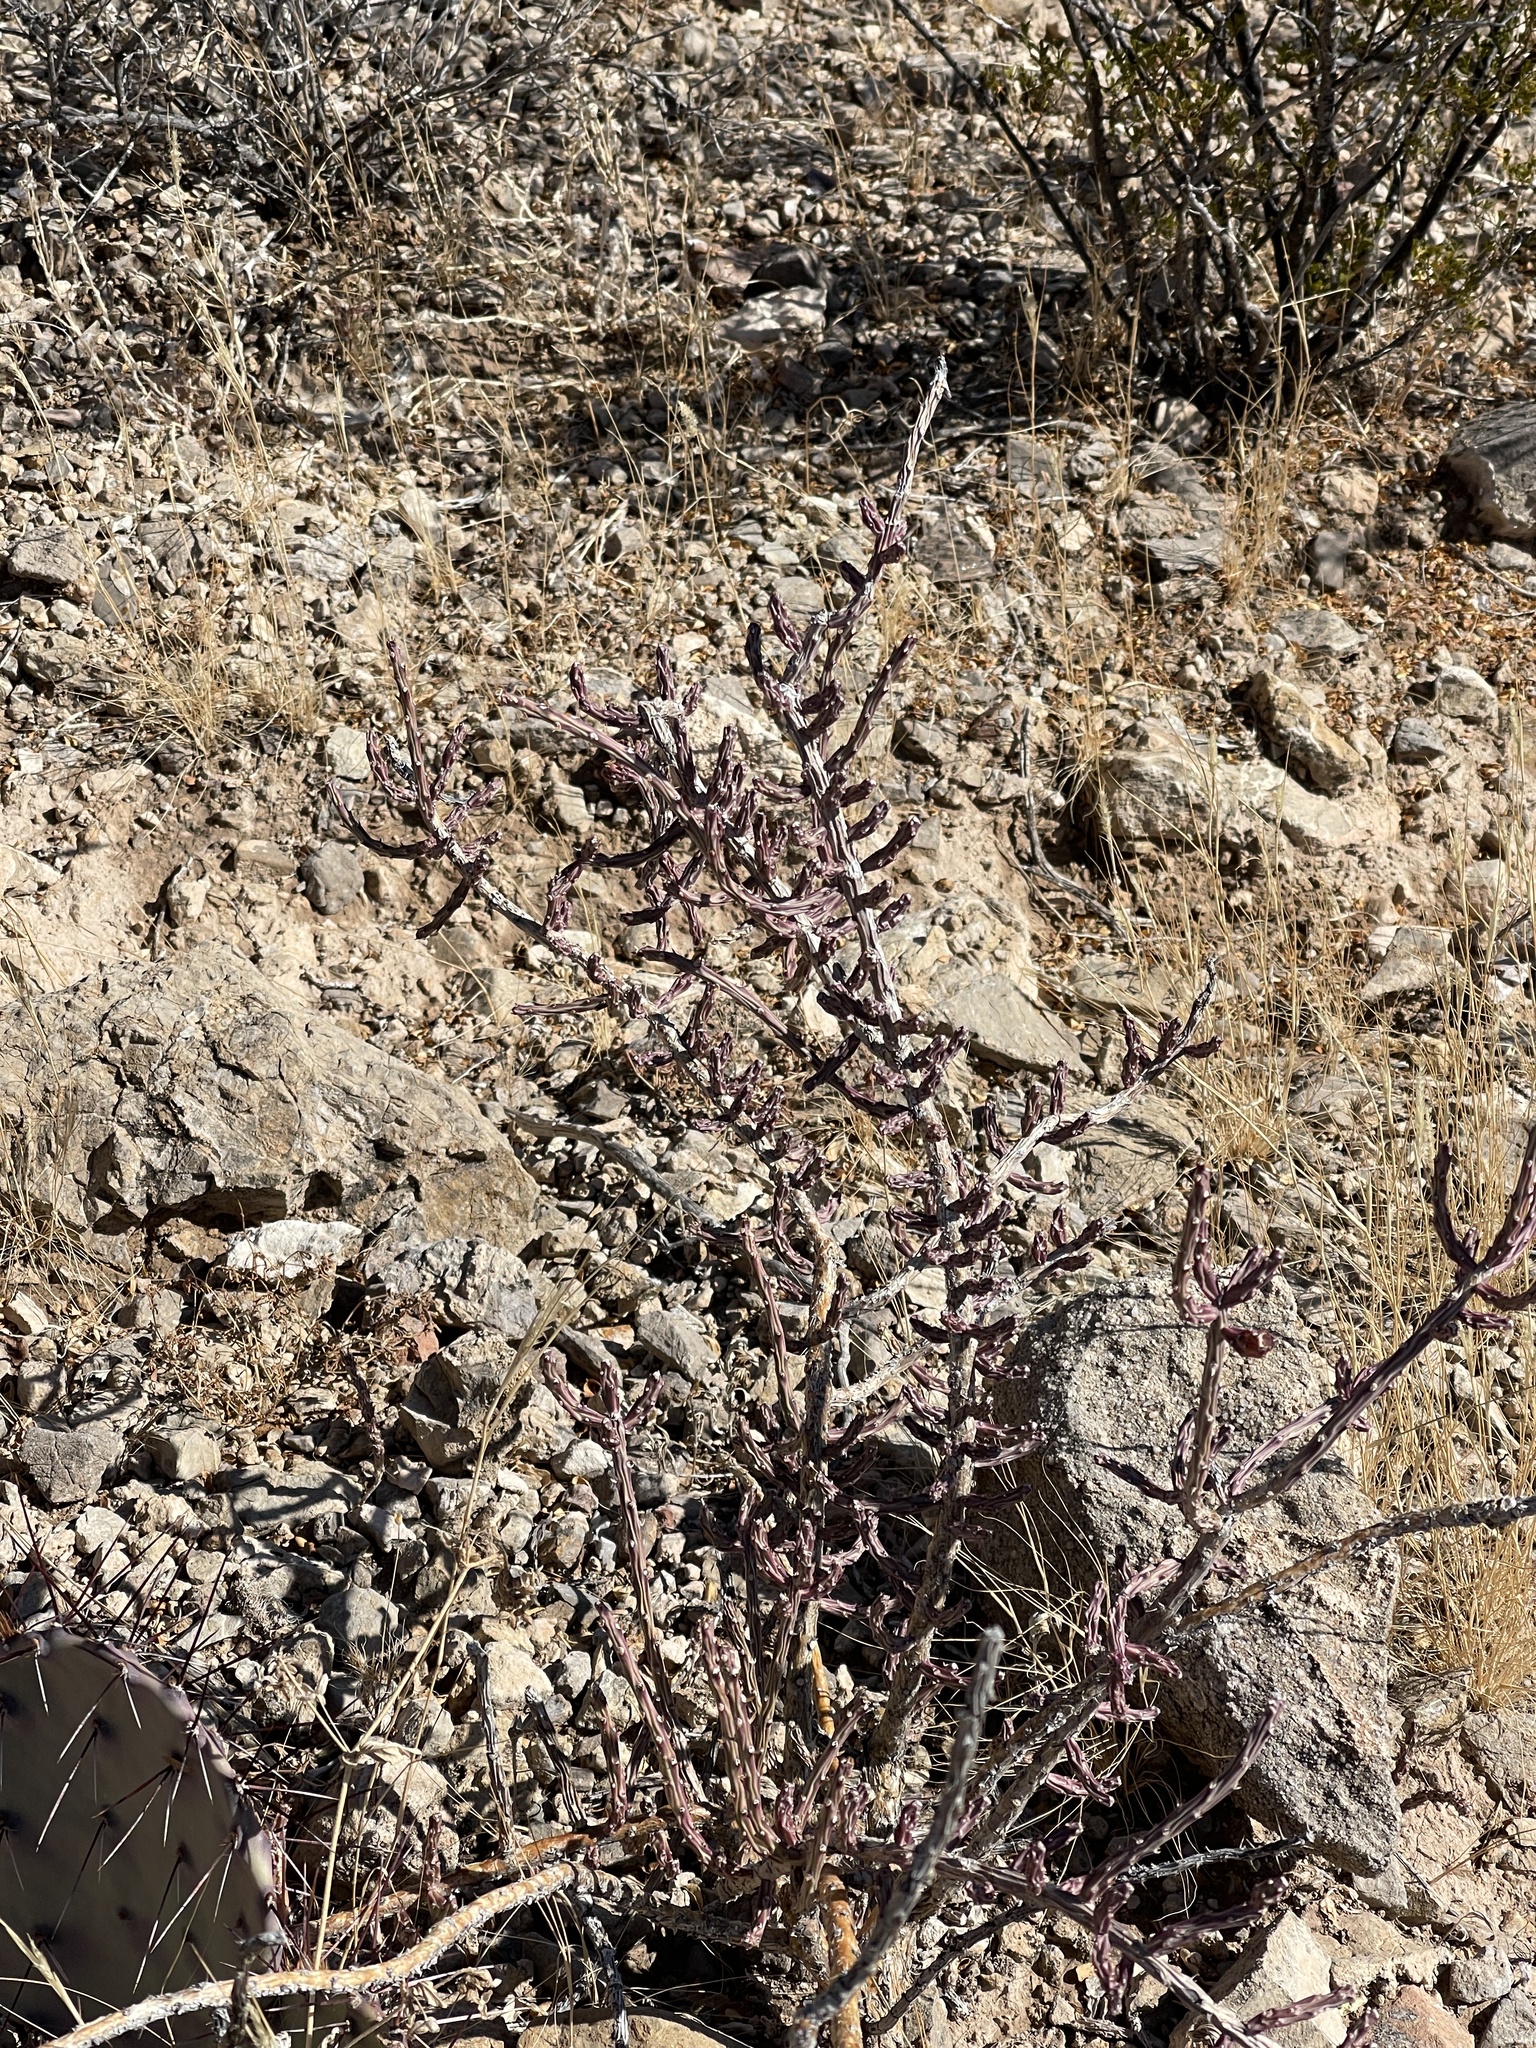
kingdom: Plantae
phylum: Tracheophyta
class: Magnoliopsida
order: Caryophyllales
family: Cactaceae
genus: Cylindropuntia
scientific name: Cylindropuntia leptocaulis
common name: Christmas cactus
